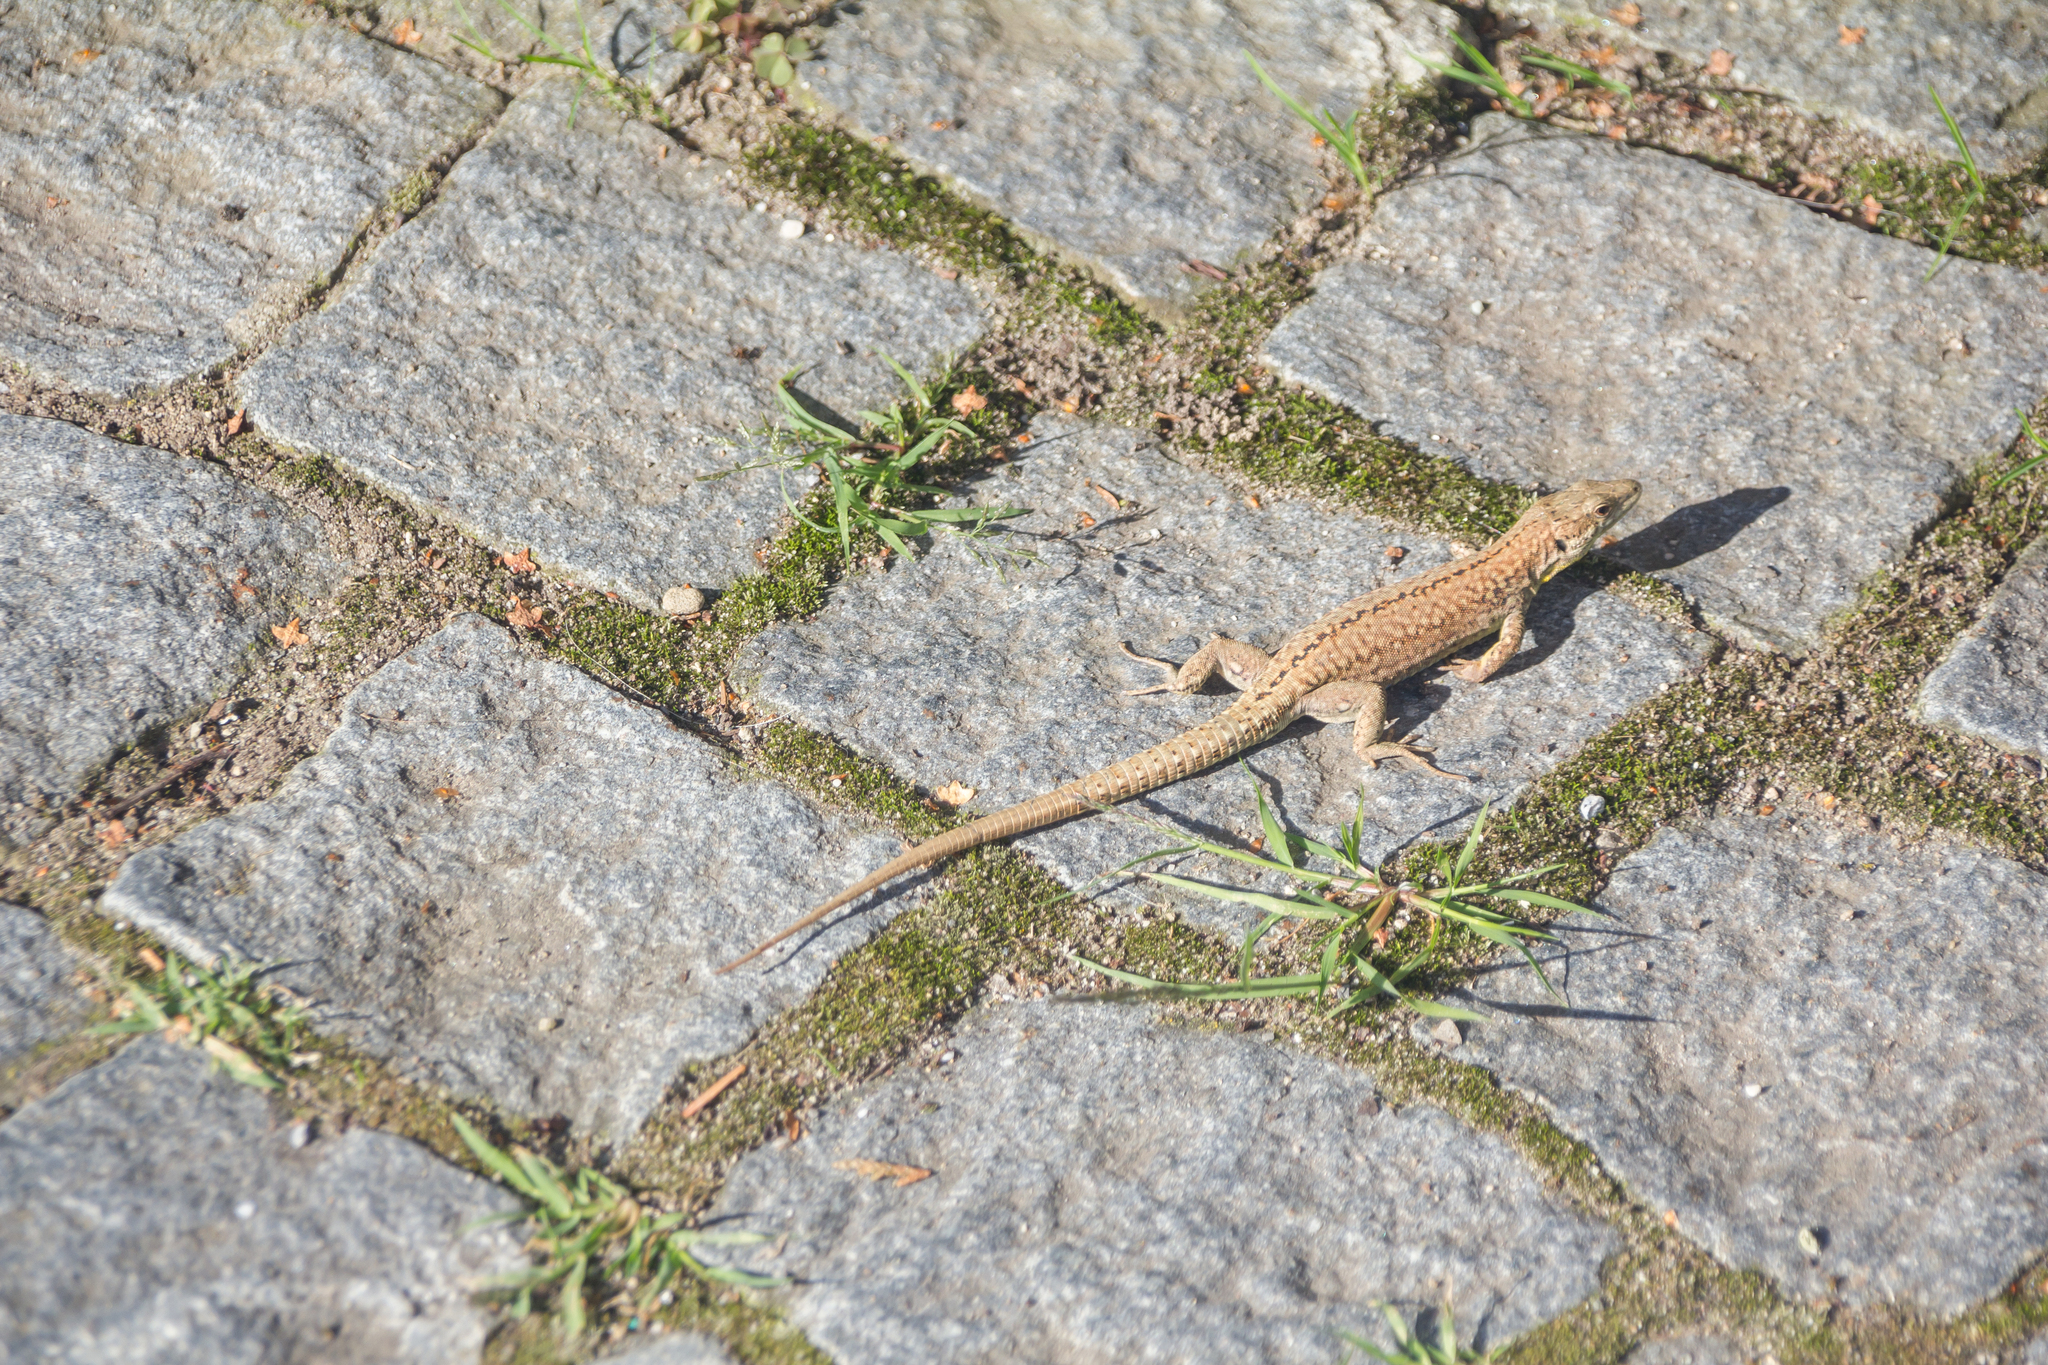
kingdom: Animalia
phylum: Chordata
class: Squamata
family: Lacertidae
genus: Podarcis
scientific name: Podarcis muralis
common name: Common wall lizard
